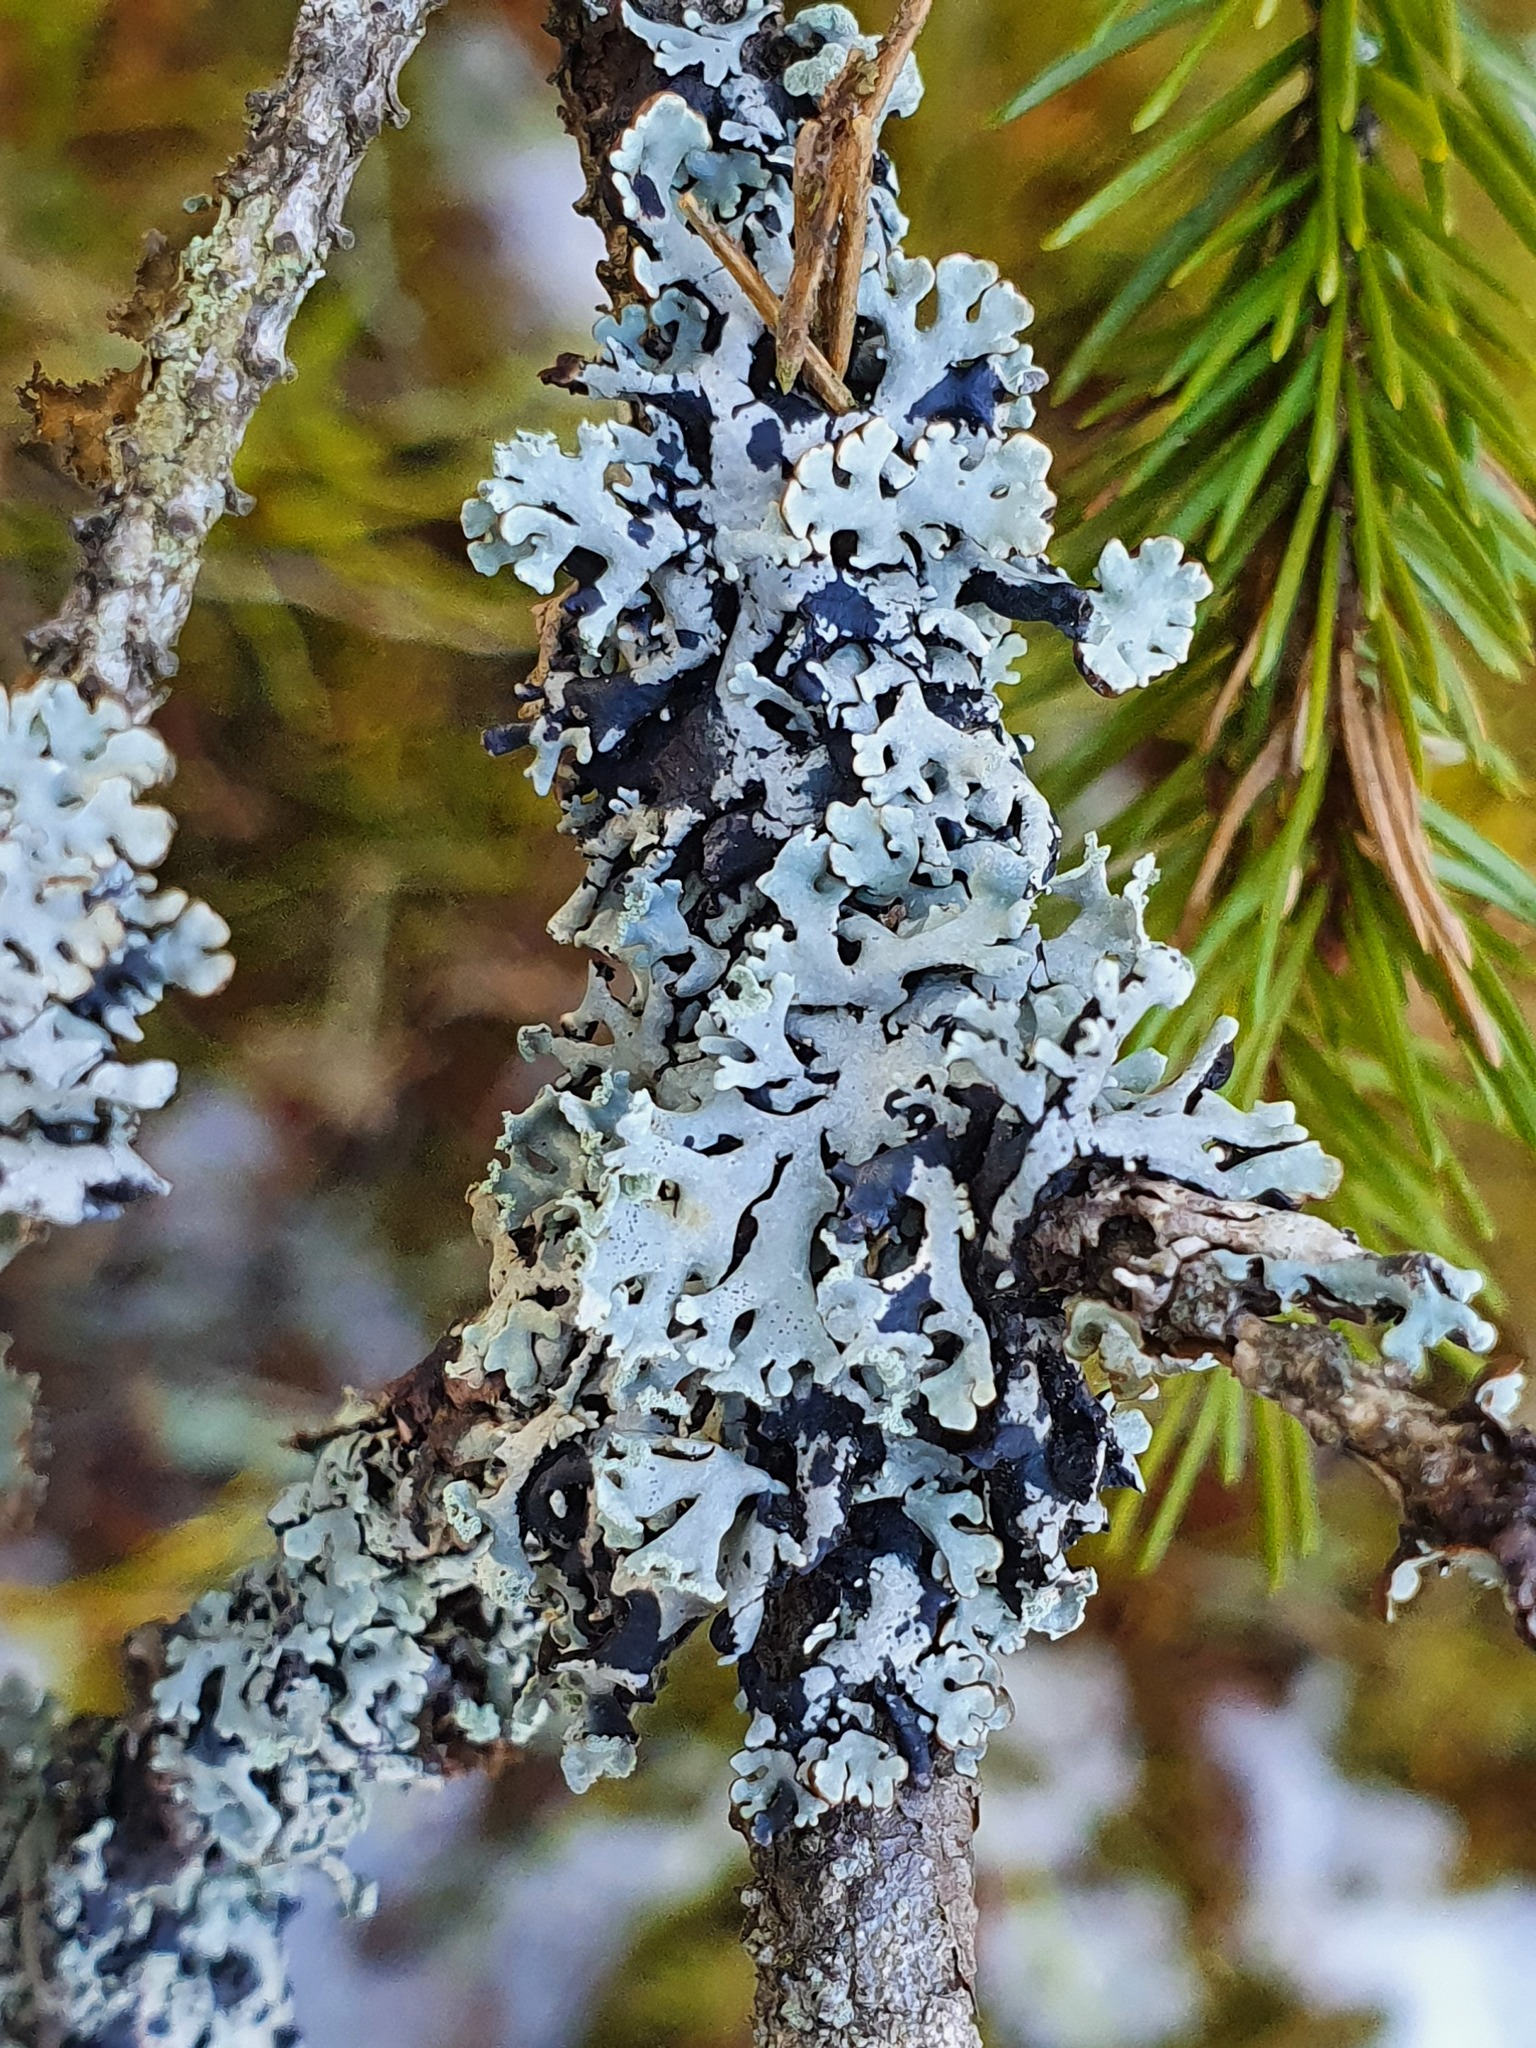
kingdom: Fungi
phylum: Ascomycota
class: Lecanoromycetes
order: Lecanorales
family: Parmeliaceae
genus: Hypogymnia
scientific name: Hypogymnia physodes
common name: Dark crottle
